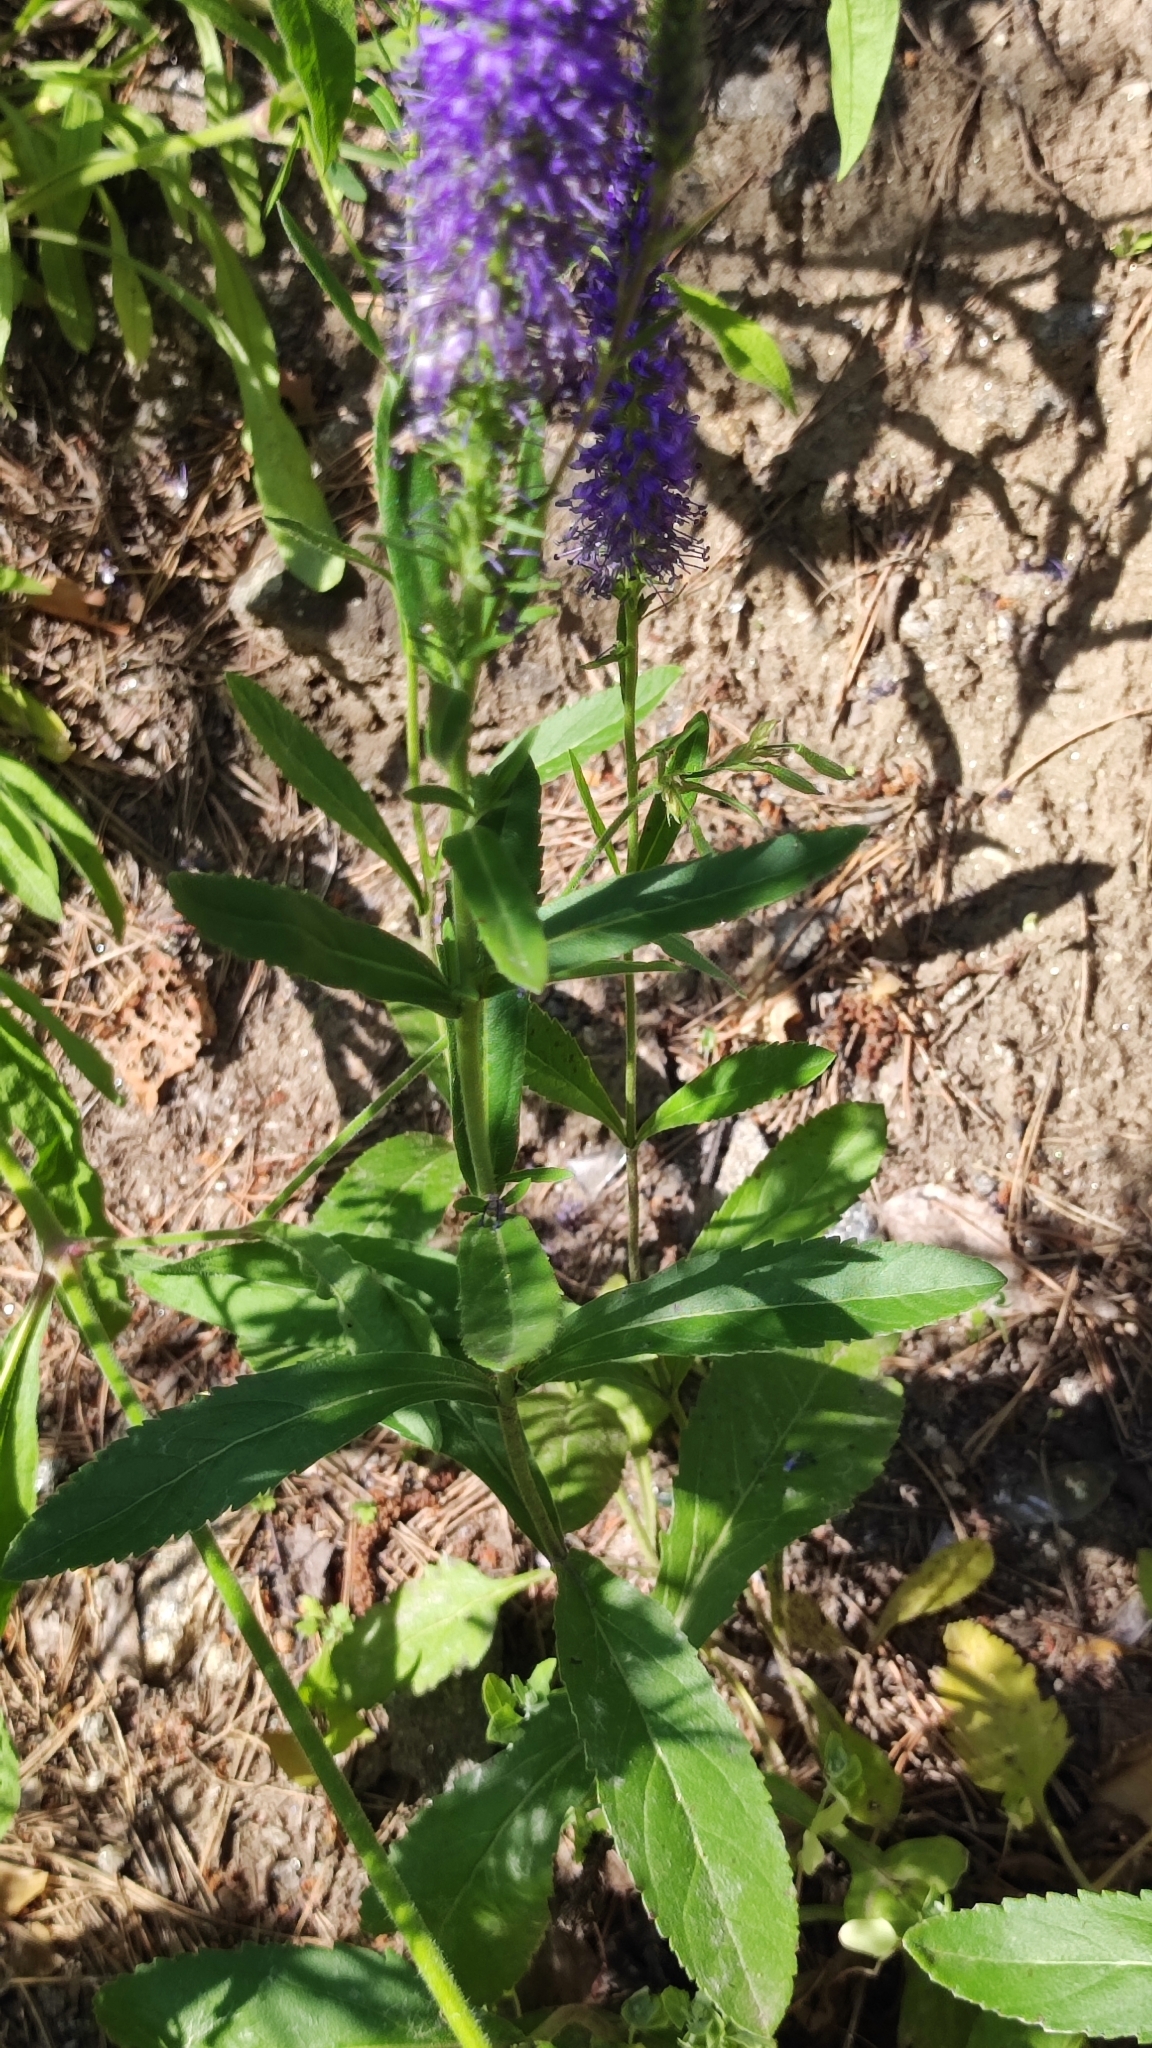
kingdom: Plantae
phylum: Tracheophyta
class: Magnoliopsida
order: Lamiales
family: Plantaginaceae
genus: Veronica
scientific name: Veronica spicata
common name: Spiked speedwell
